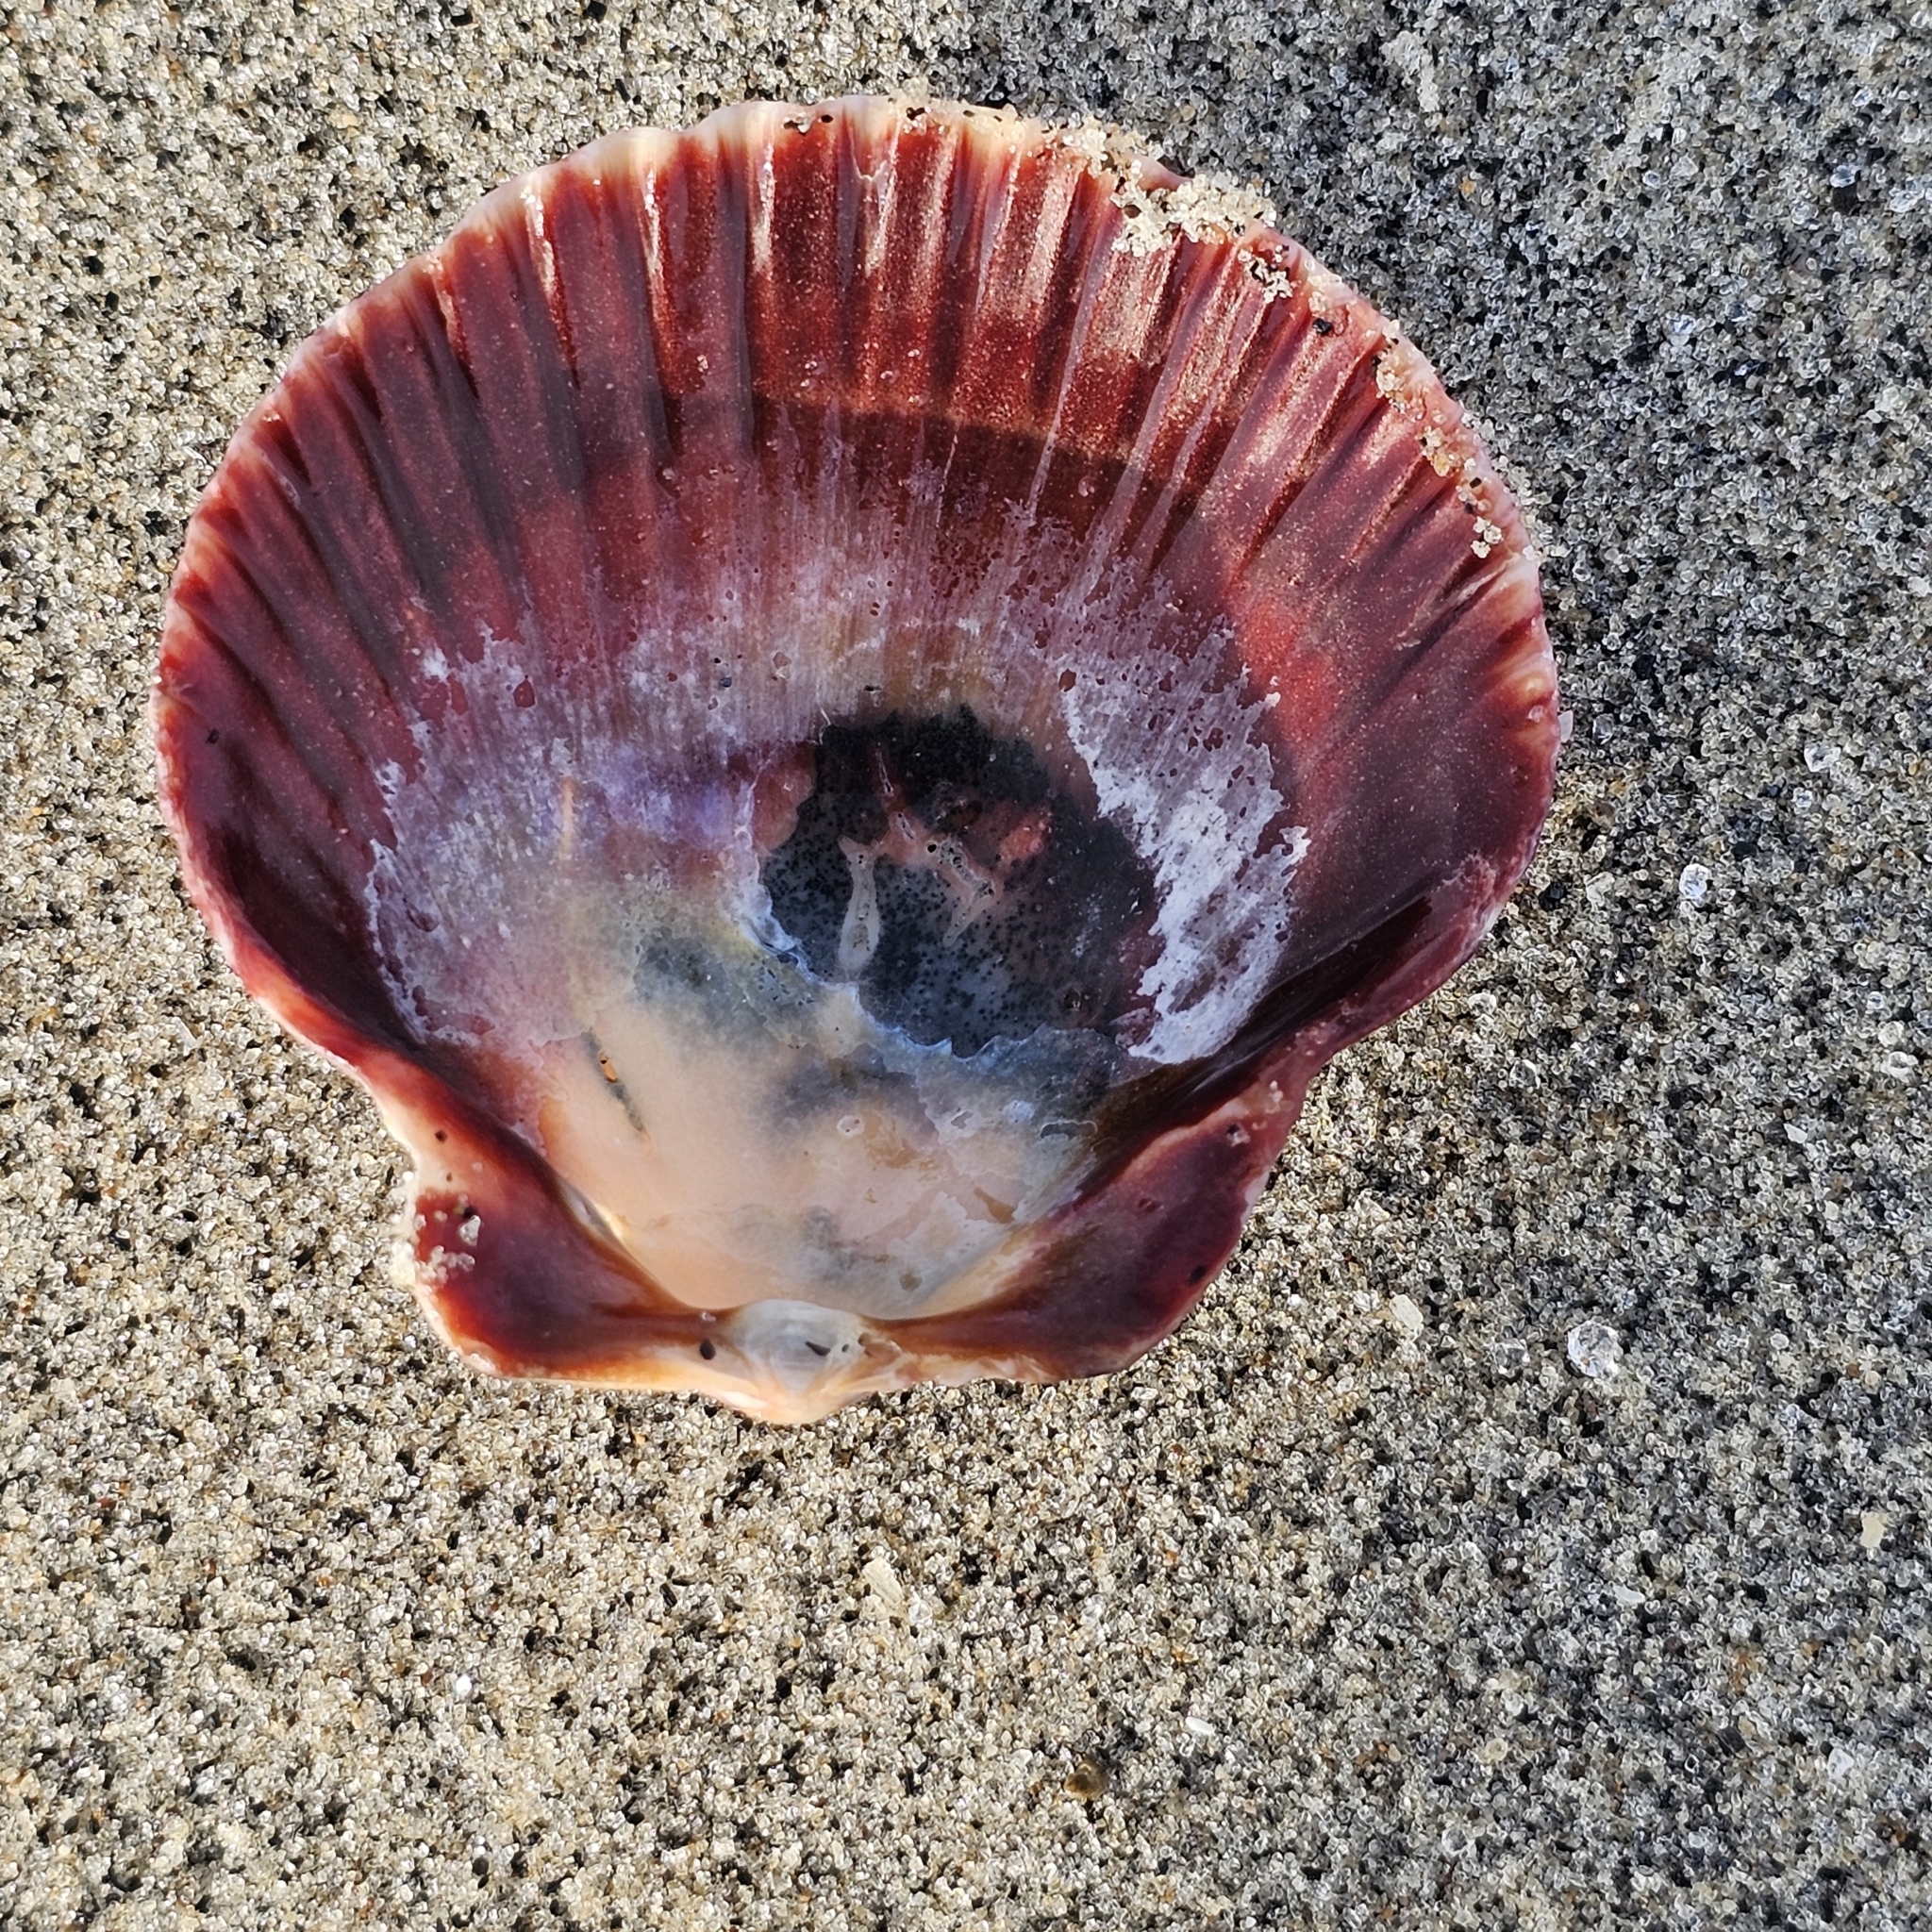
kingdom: Animalia
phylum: Mollusca
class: Bivalvia
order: Pectinida
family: Pectinidae
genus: Argopecten
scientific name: Argopecten ventricosus
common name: Catarina scallop
